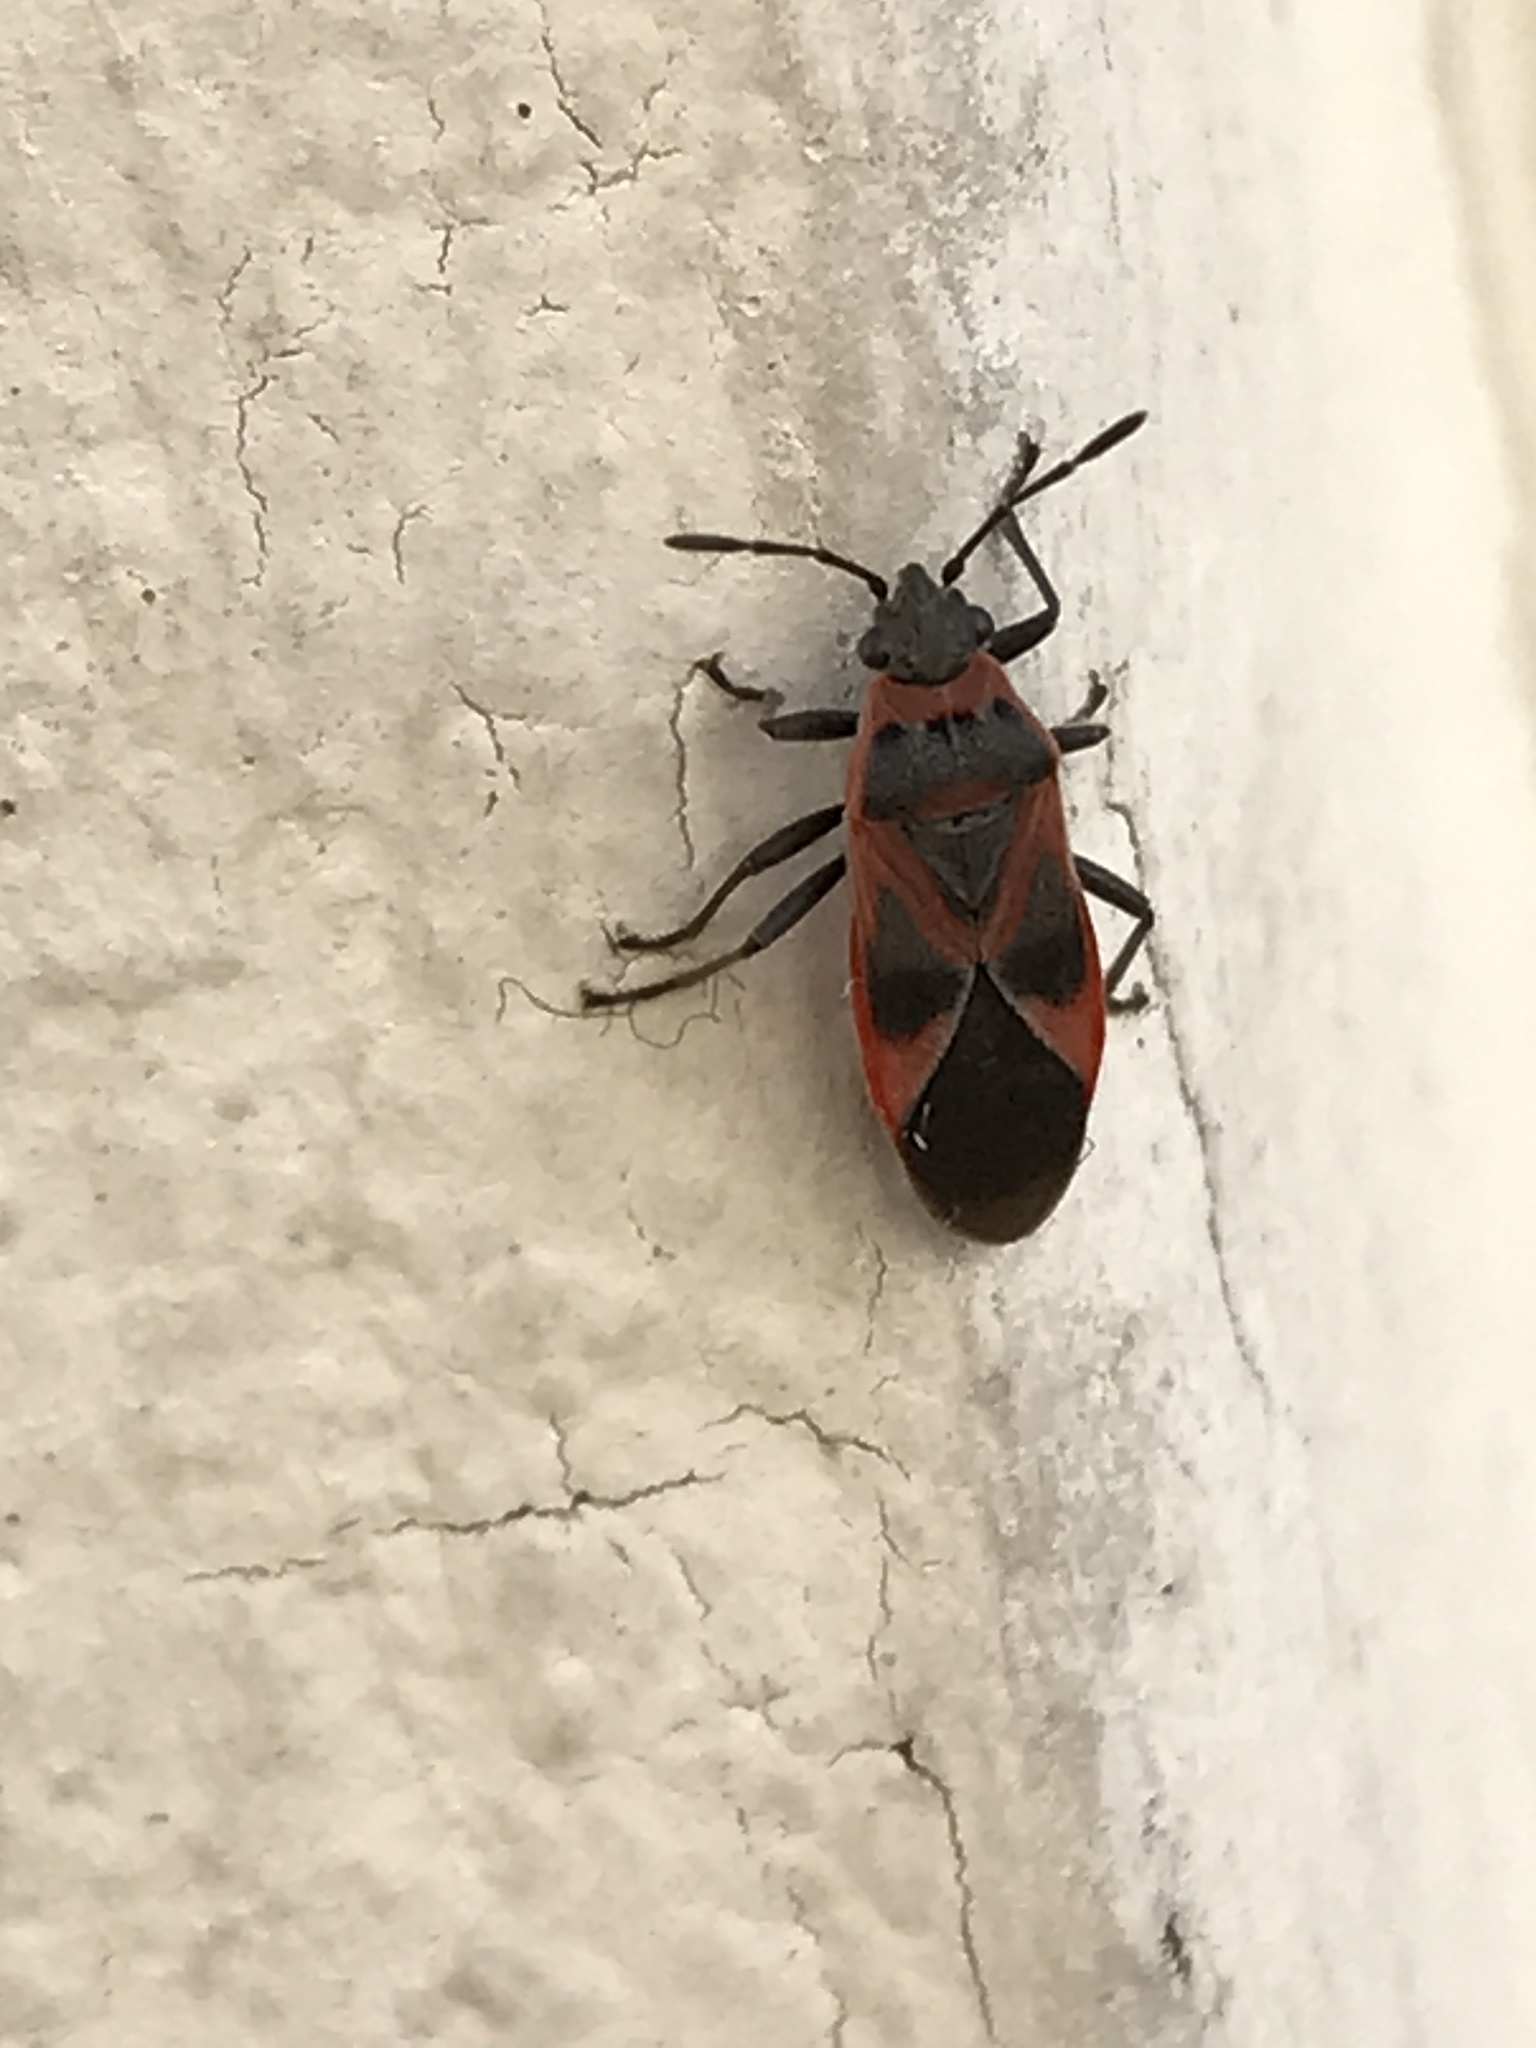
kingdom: Animalia
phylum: Arthropoda
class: Insecta
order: Hemiptera
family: Lygaeidae
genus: Arocatus
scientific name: Arocatus roeselii
